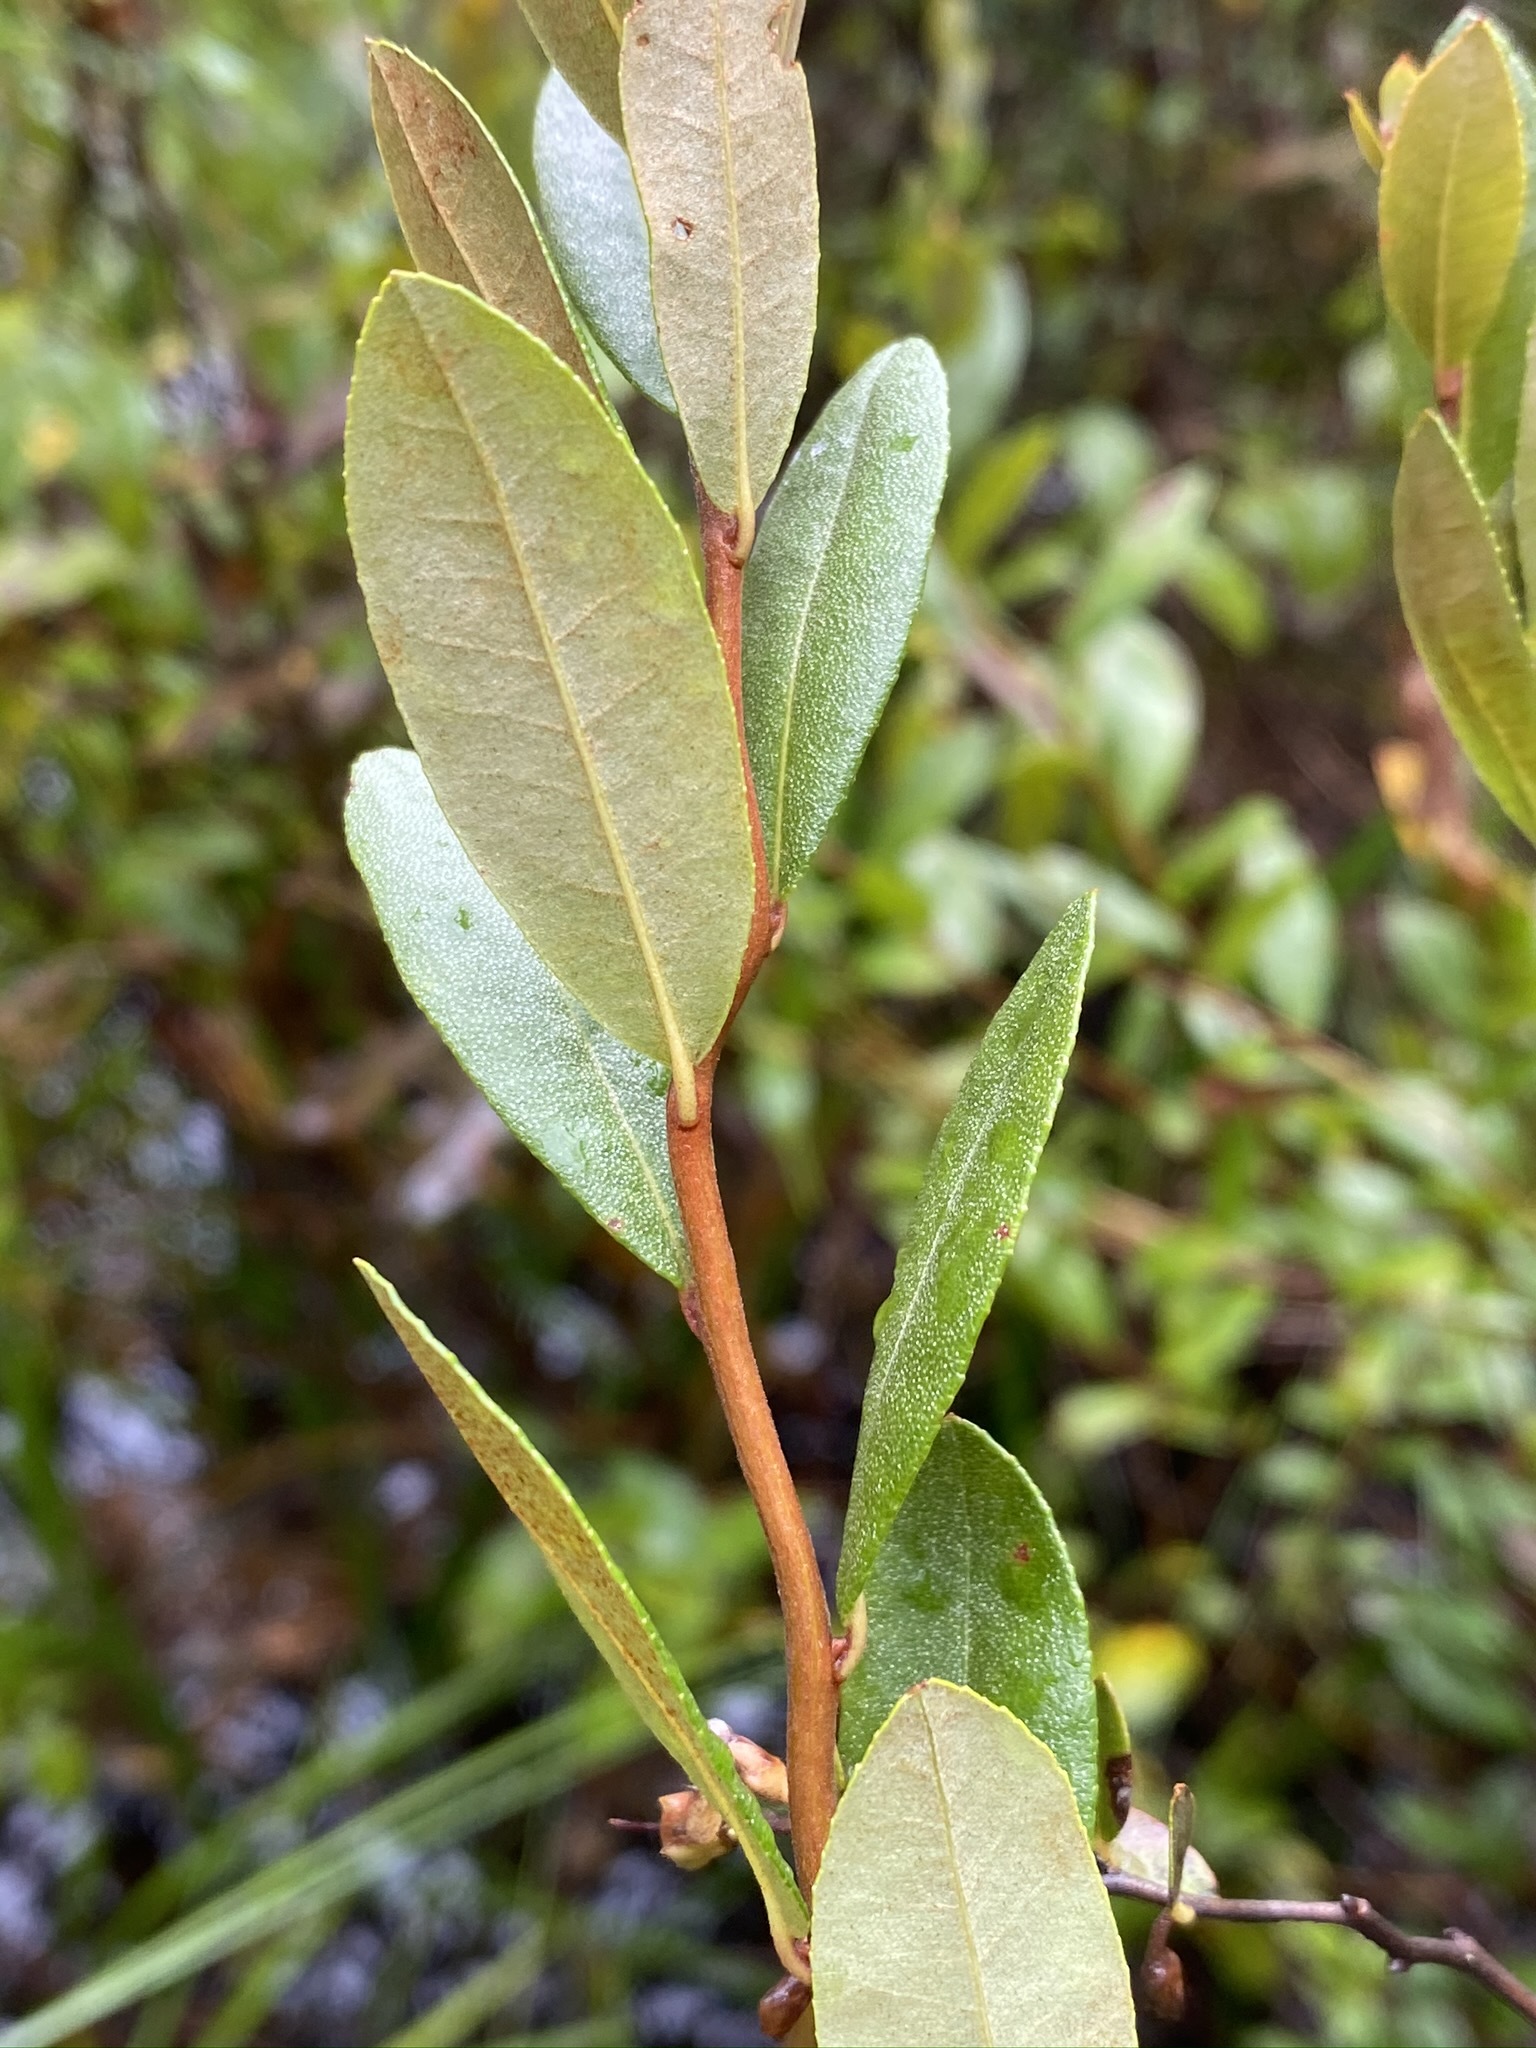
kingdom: Plantae
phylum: Tracheophyta
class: Magnoliopsida
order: Ericales
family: Ericaceae
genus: Chamaedaphne
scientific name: Chamaedaphne calyculata
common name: Leatherleaf
